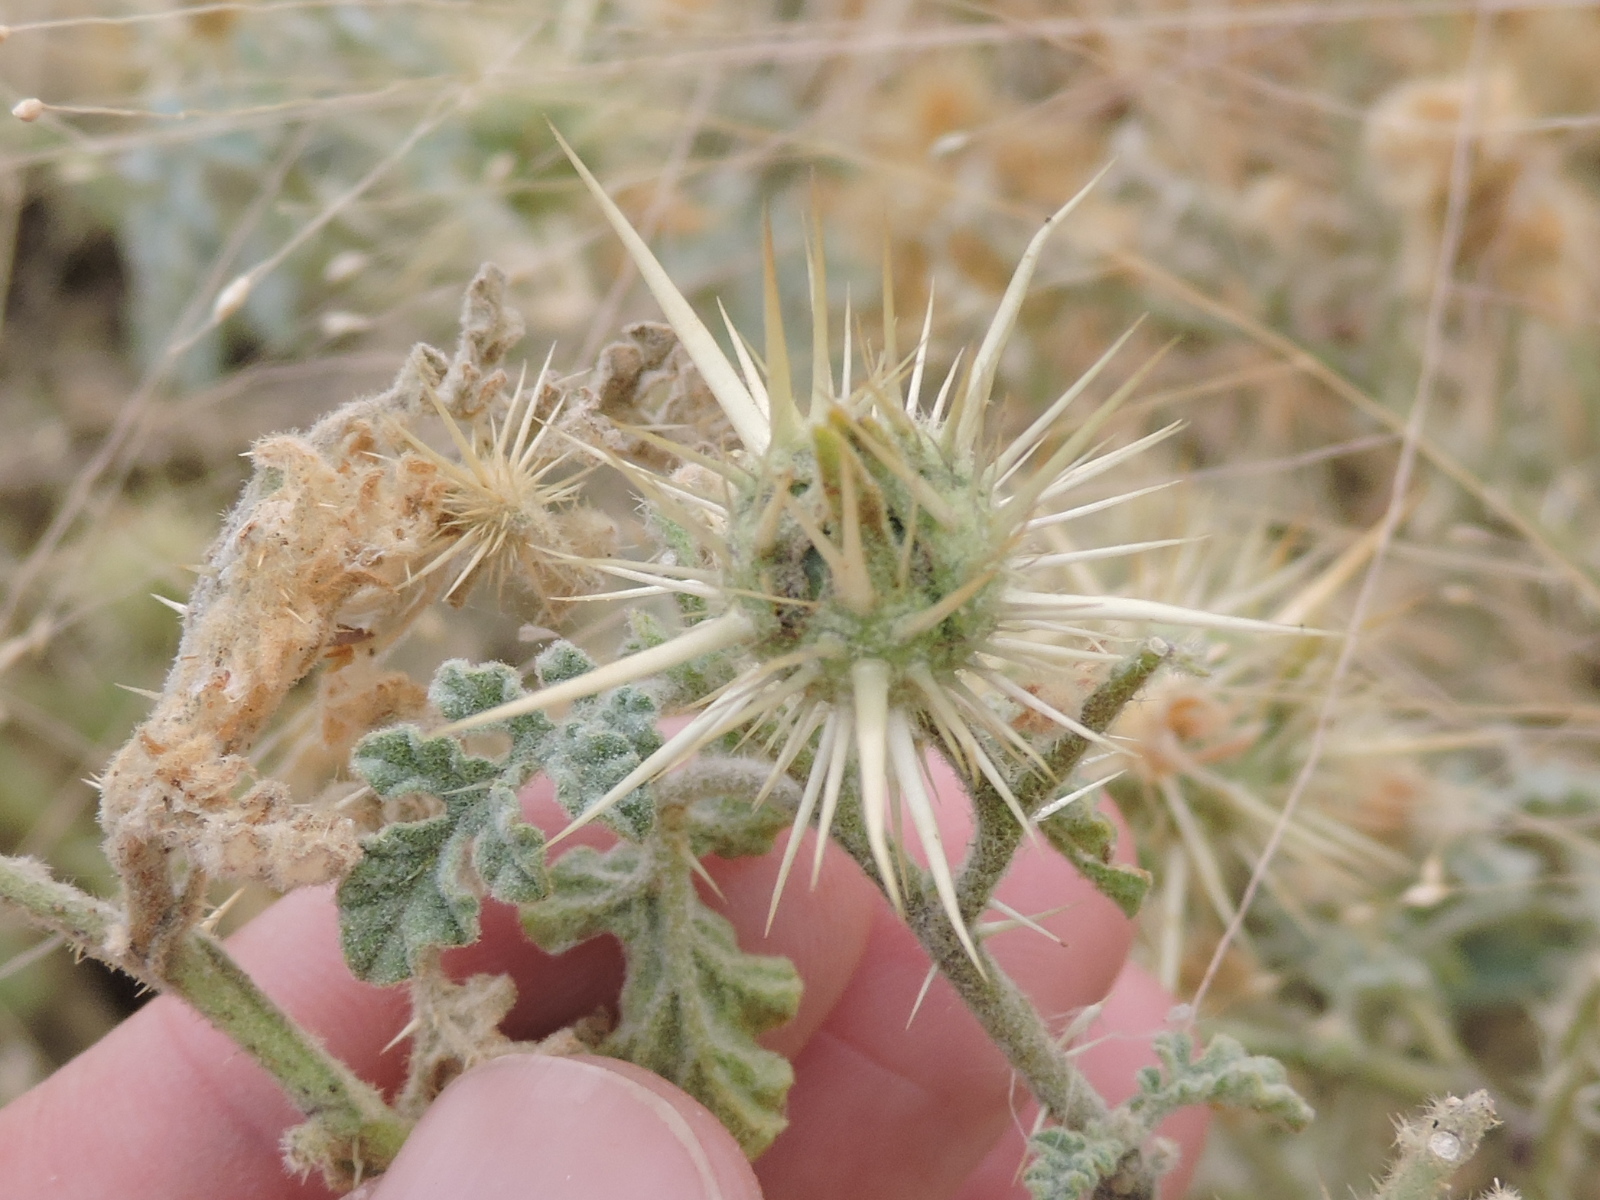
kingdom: Plantae
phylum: Tracheophyta
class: Magnoliopsida
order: Solanales
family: Solanaceae
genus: Solanum
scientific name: Solanum angustifolium
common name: Buffalobur nightshade
